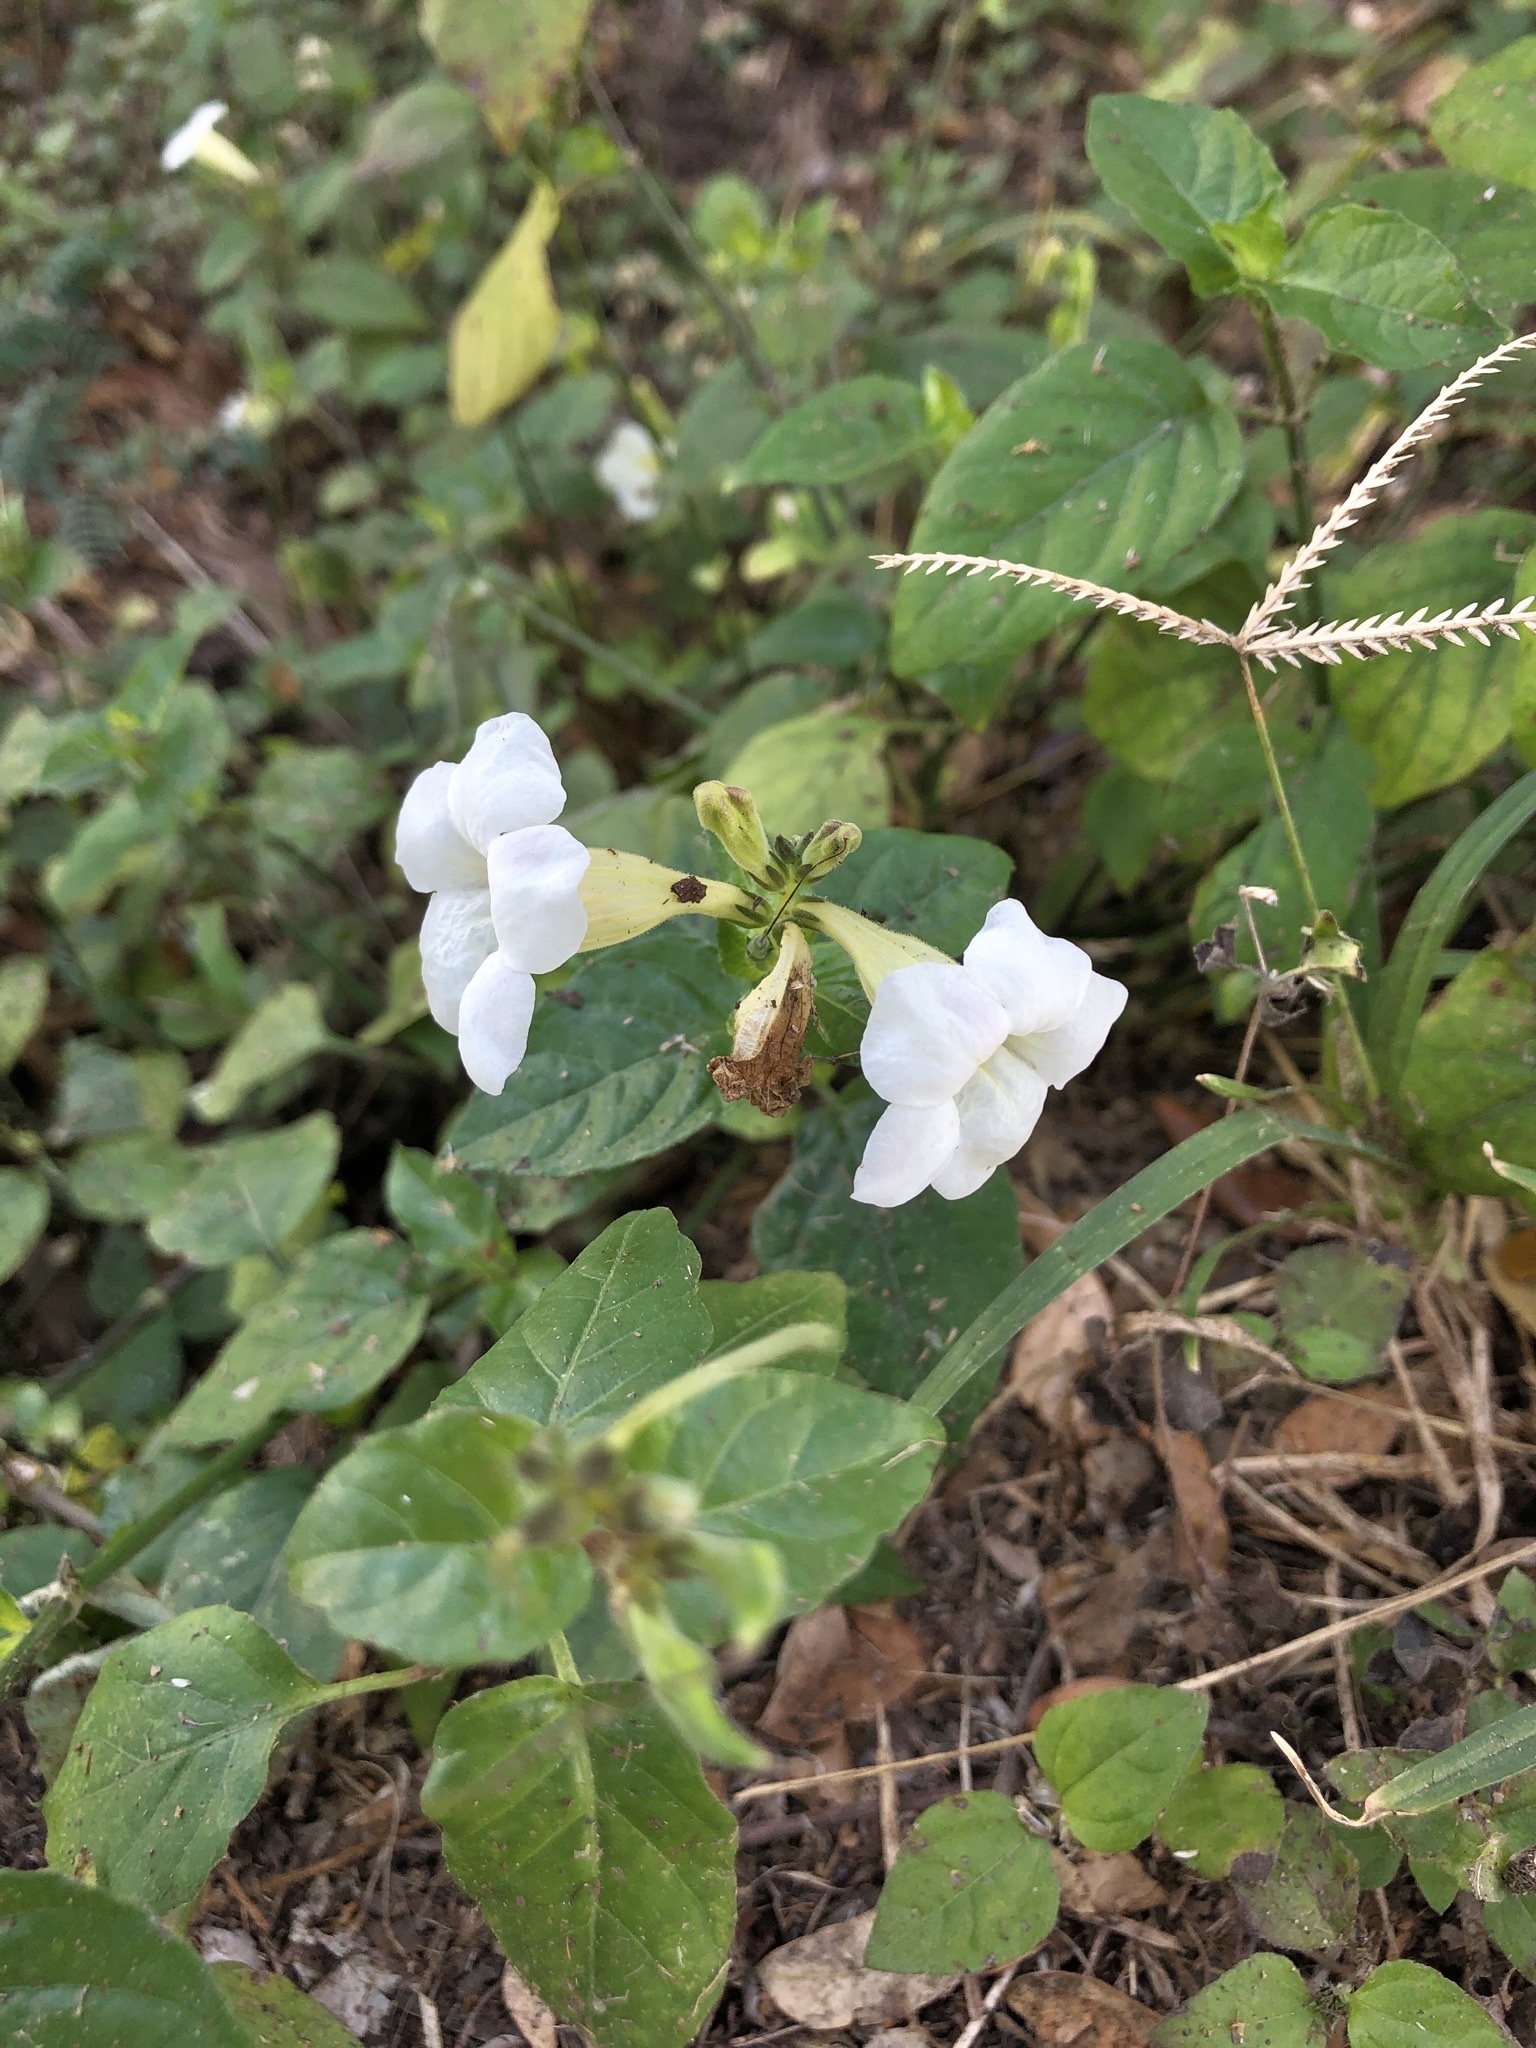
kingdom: Plantae
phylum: Tracheophyta
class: Magnoliopsida
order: Lamiales
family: Acanthaceae
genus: Asystasia
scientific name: Asystasia gangetica
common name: Chinese violet
